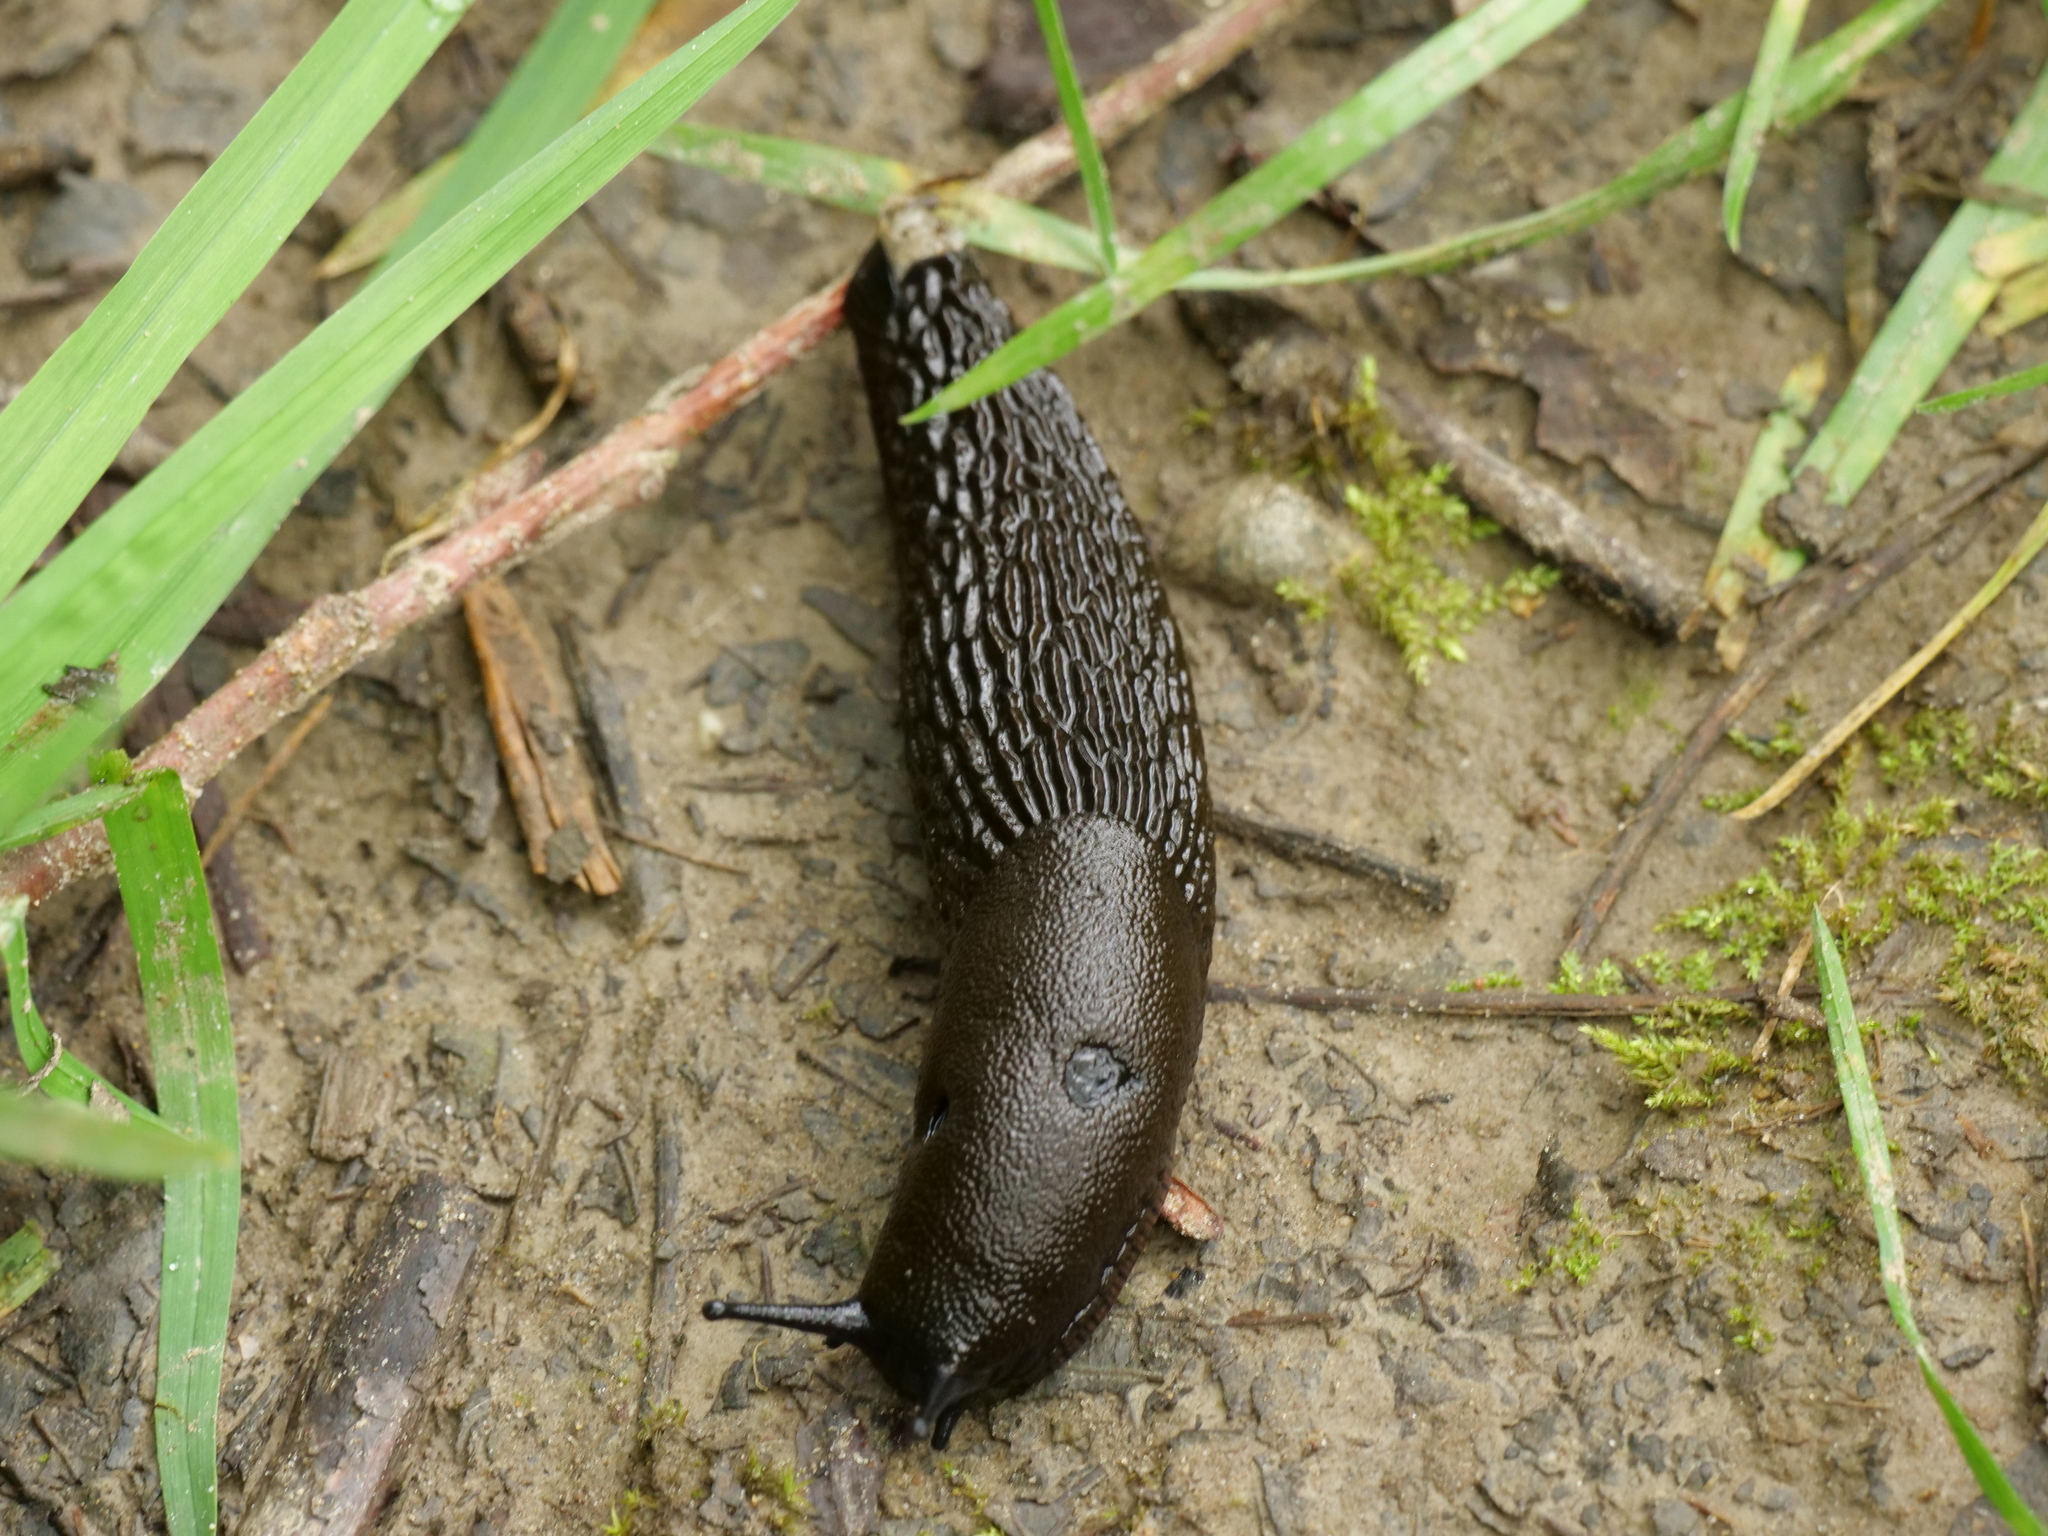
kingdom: Animalia
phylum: Mollusca
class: Gastropoda
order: Stylommatophora
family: Arionidae
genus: Arion
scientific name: Arion rufus
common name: Chocolate arion
